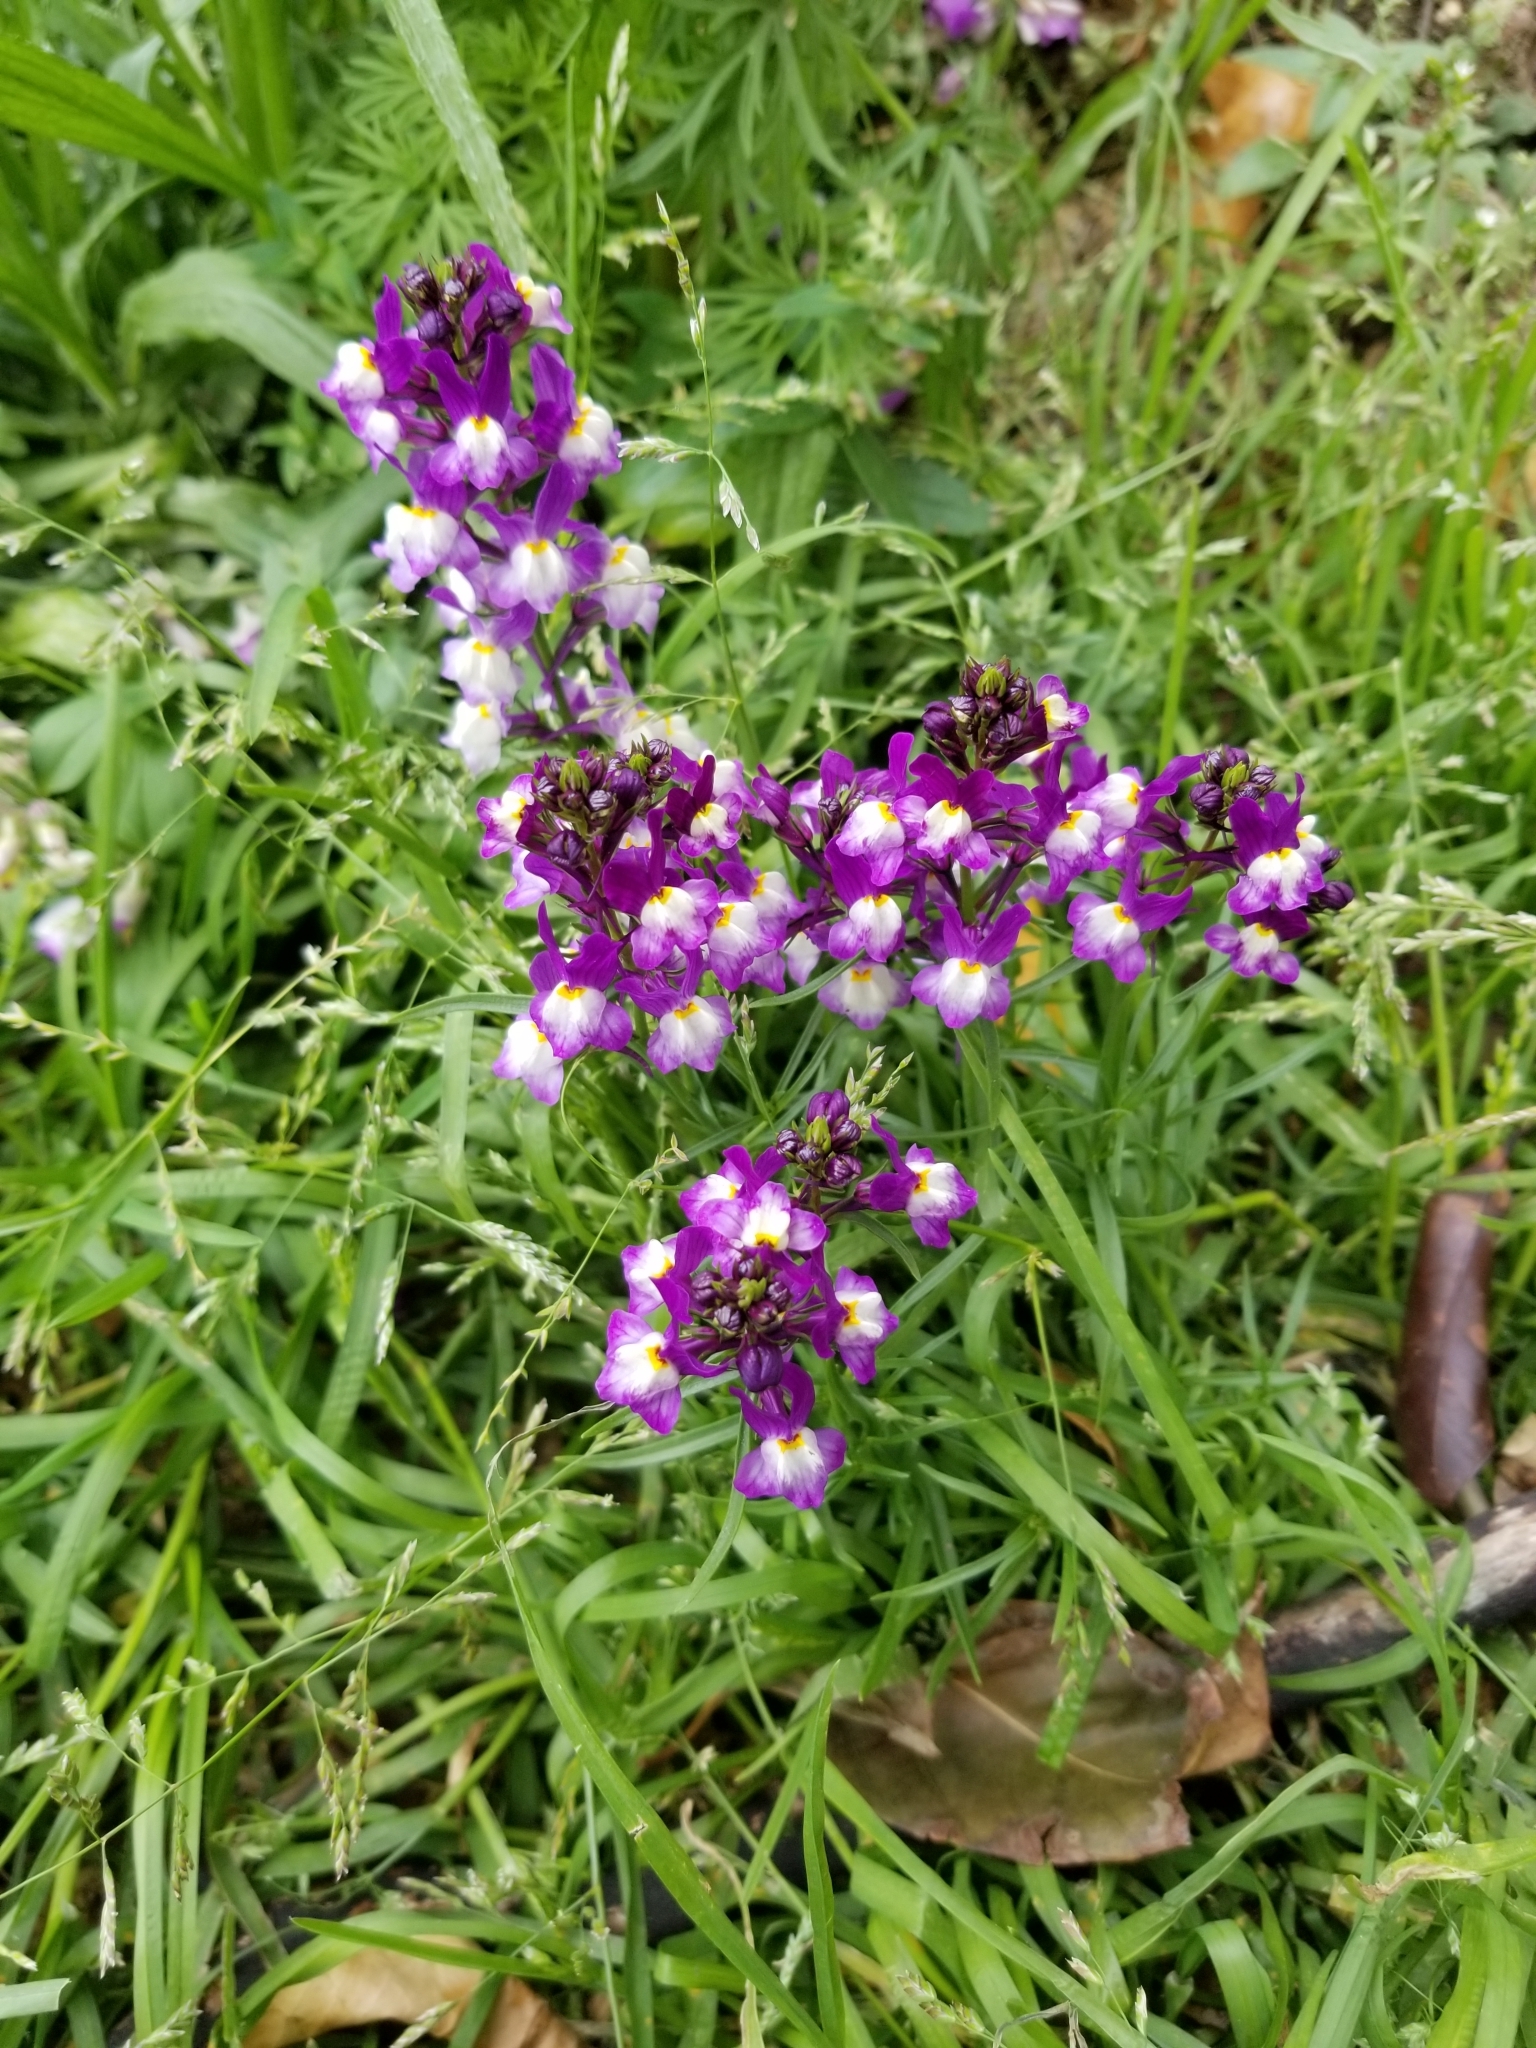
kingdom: Plantae
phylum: Tracheophyta
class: Magnoliopsida
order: Lamiales
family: Plantaginaceae
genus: Linaria
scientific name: Linaria maroccana
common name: Moroccan toadflax
